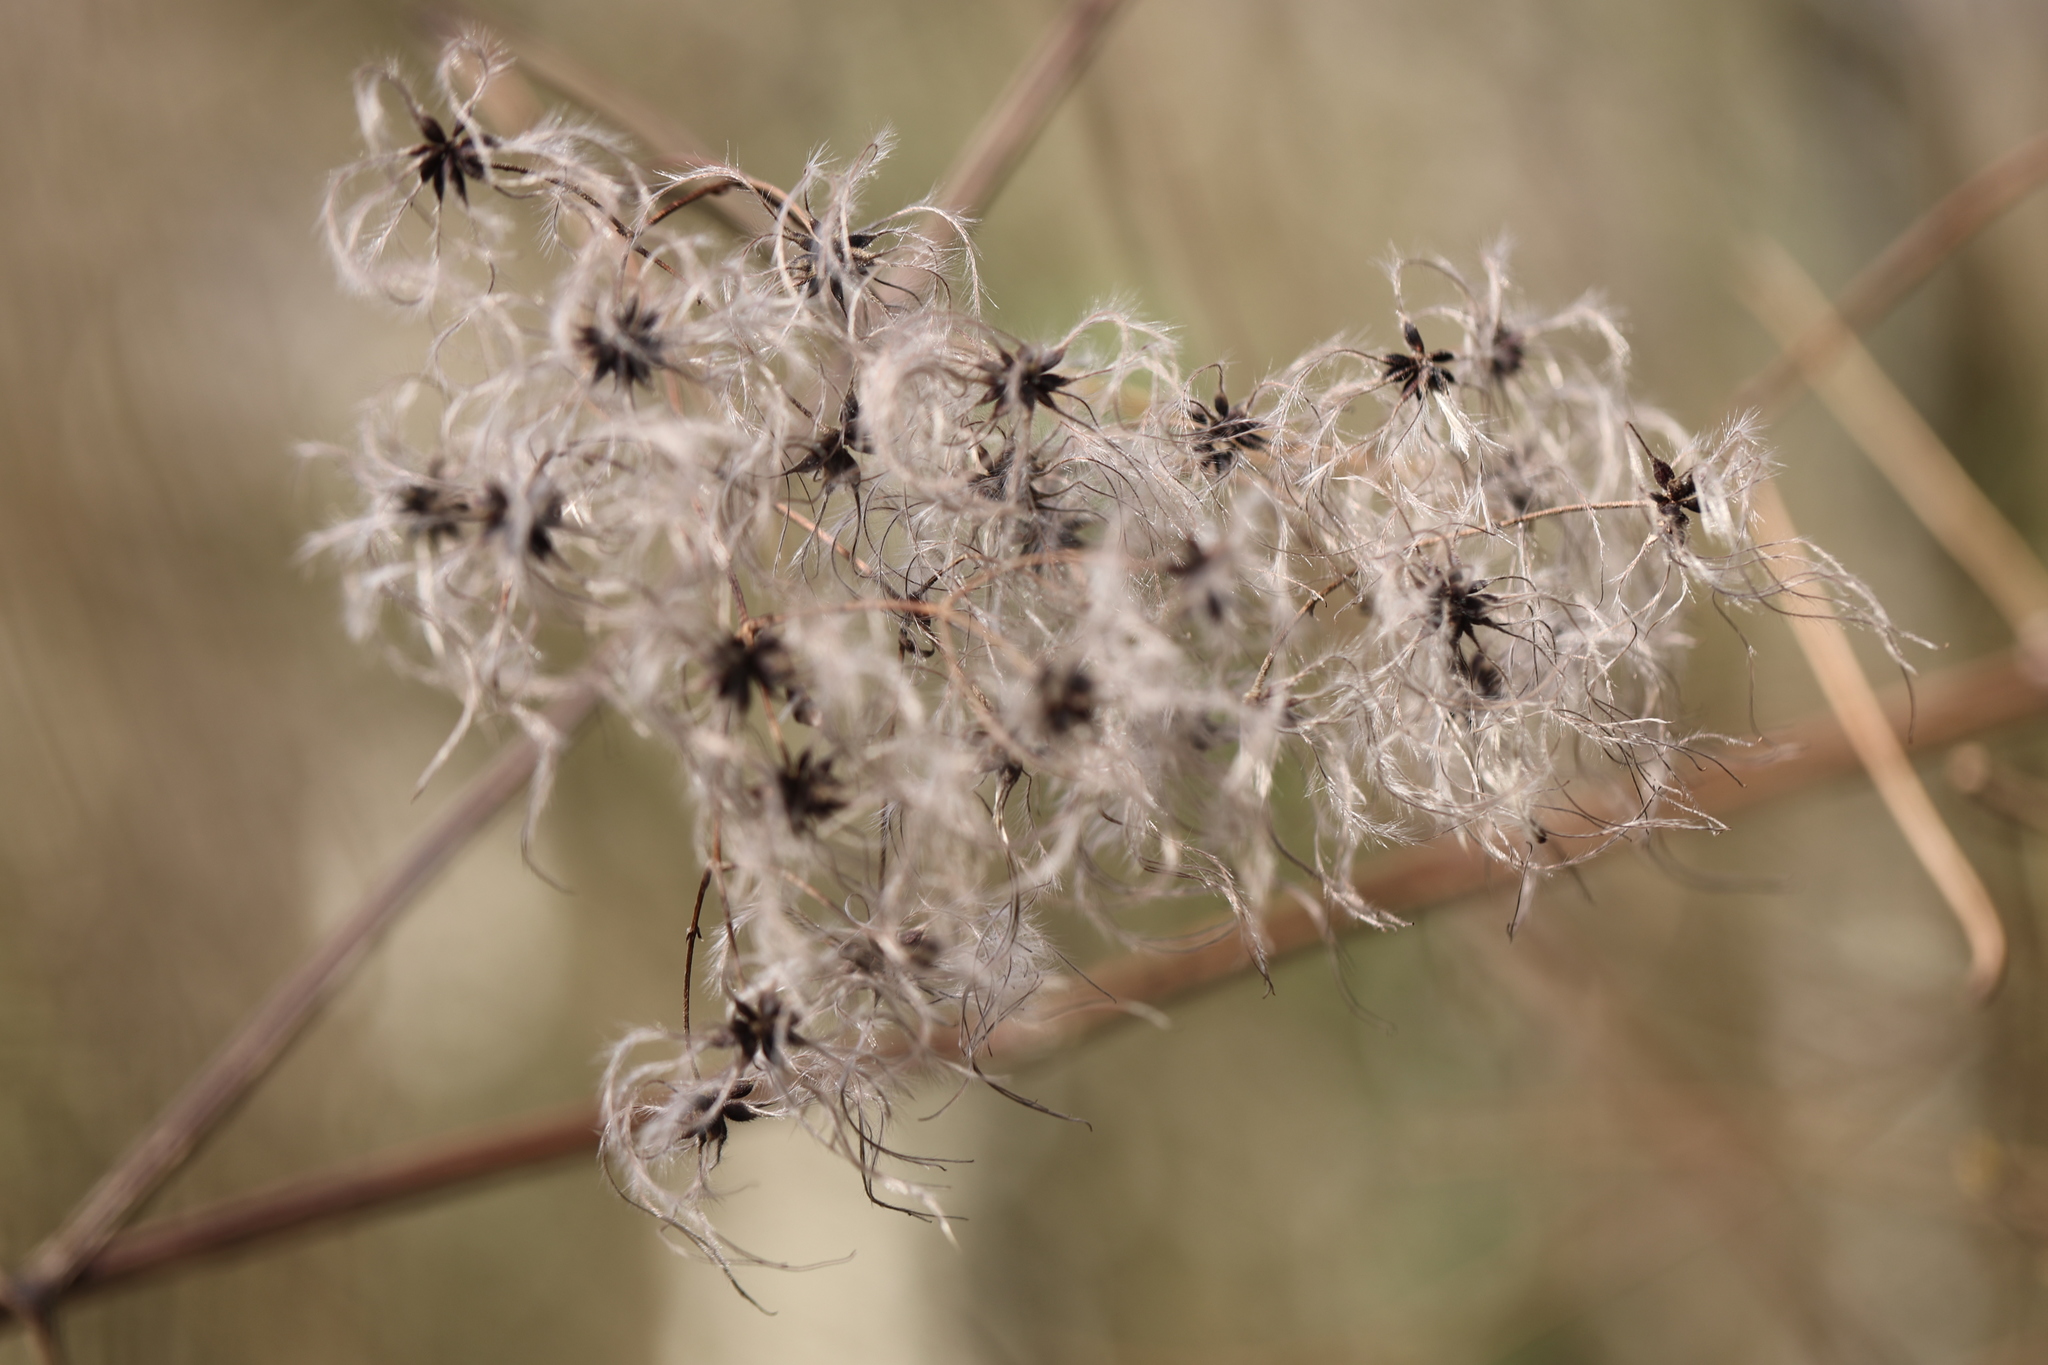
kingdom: Plantae
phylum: Tracheophyta
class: Magnoliopsida
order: Ranunculales
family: Ranunculaceae
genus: Clematis
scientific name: Clematis vitalba
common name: Evergreen clematis
